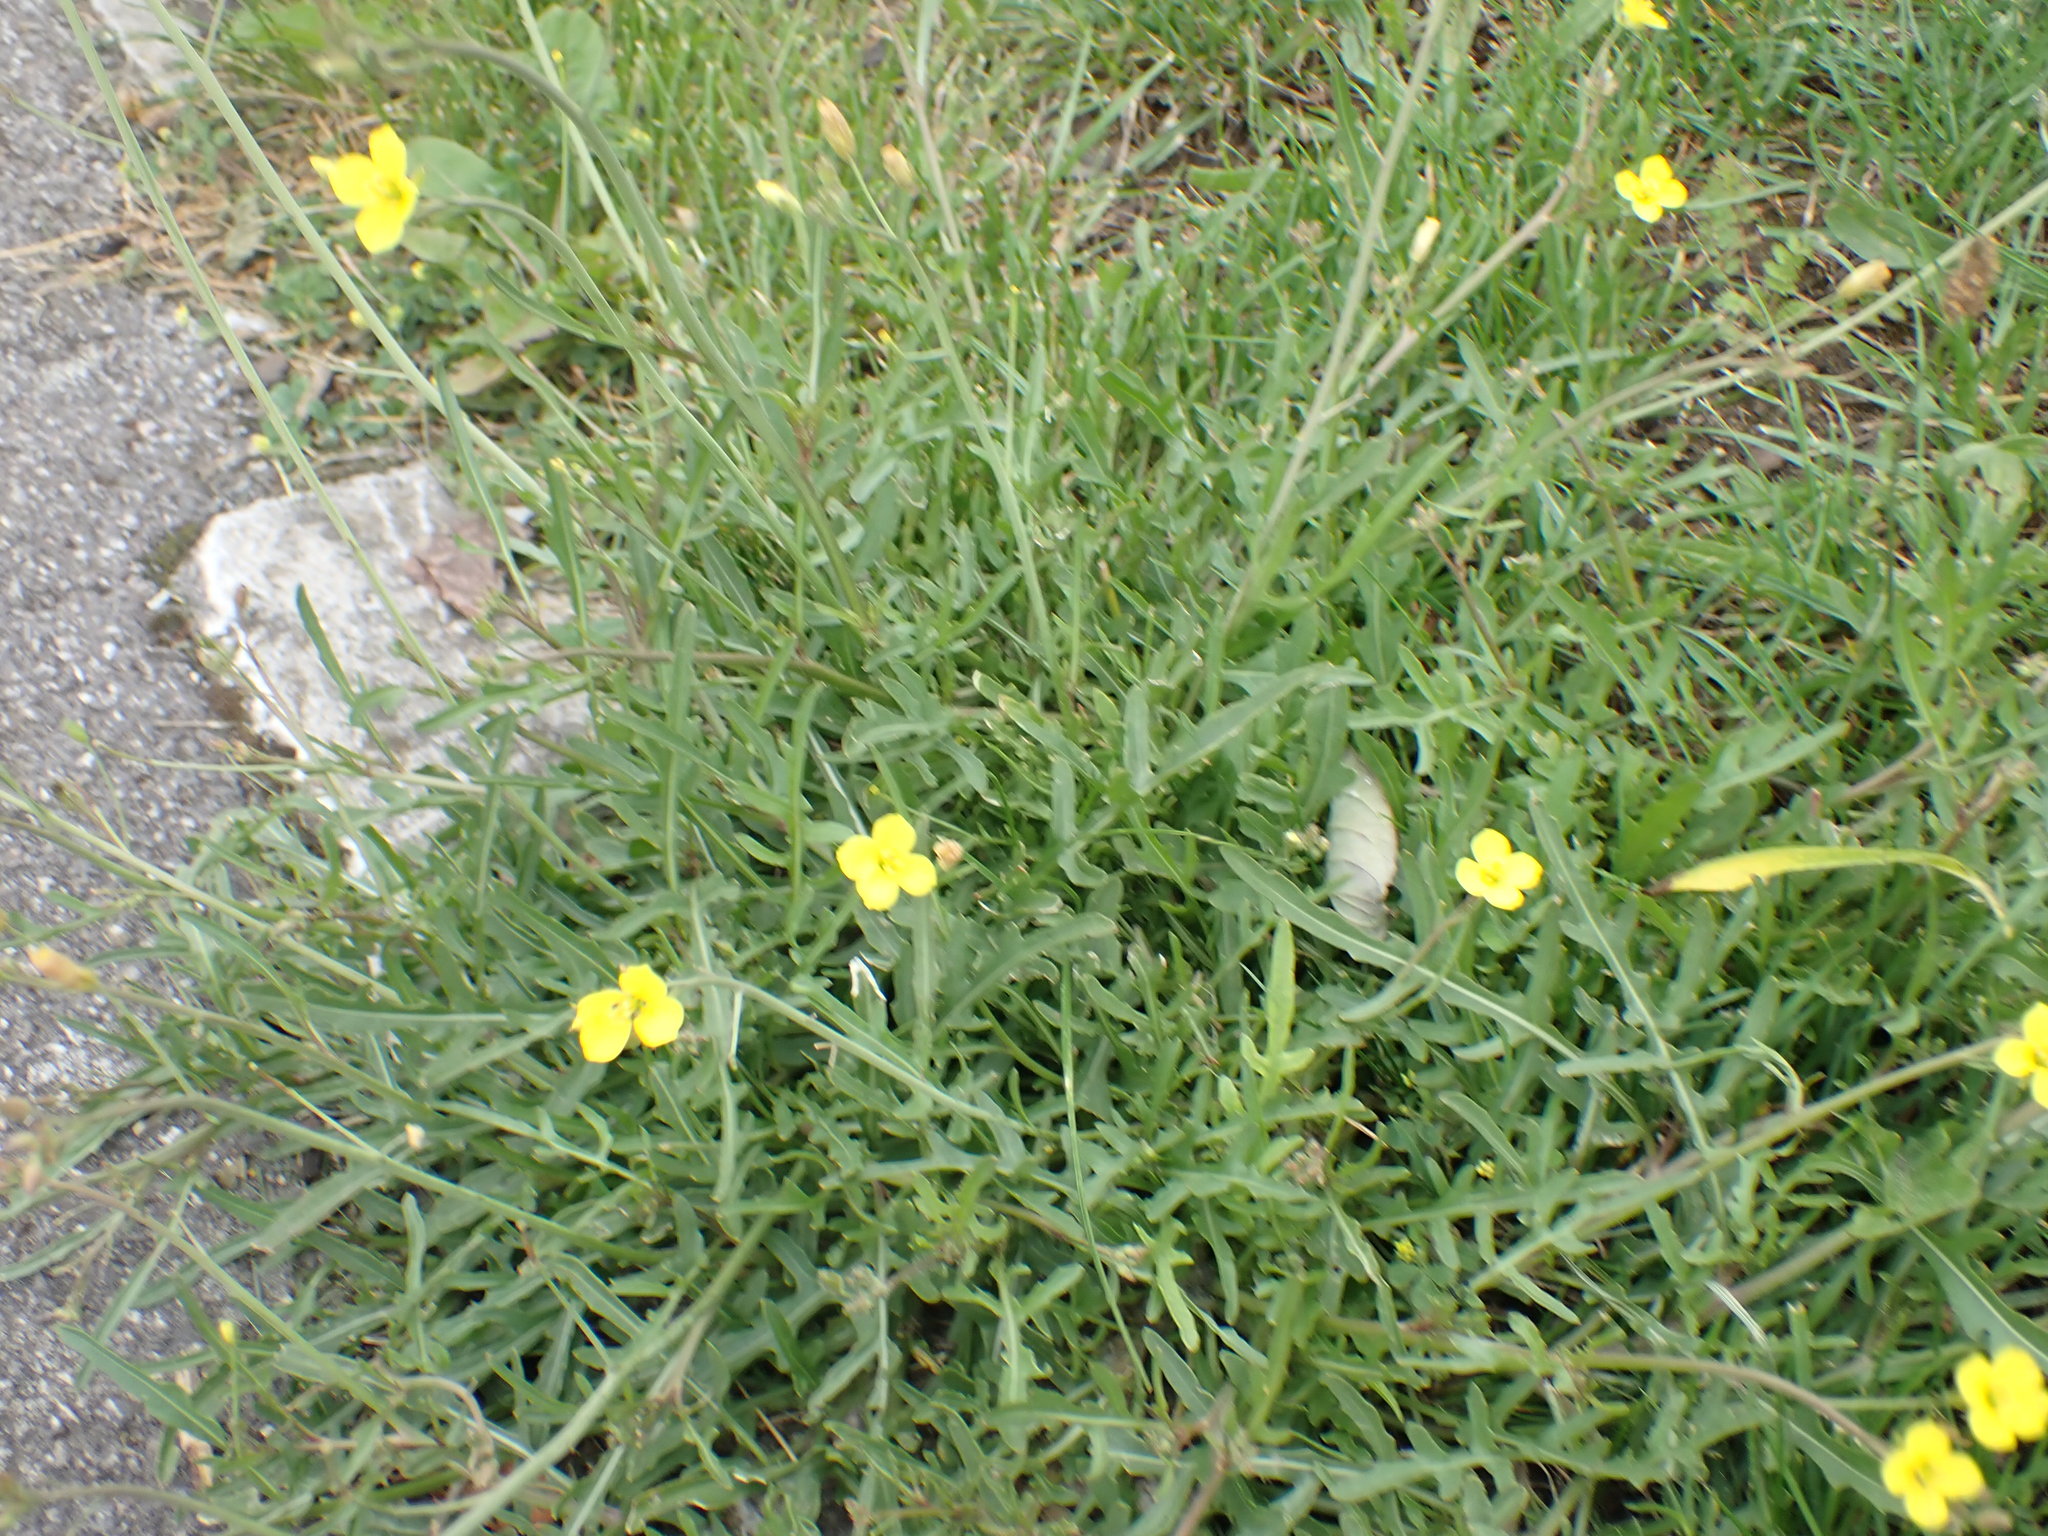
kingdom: Plantae
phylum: Tracheophyta
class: Magnoliopsida
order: Brassicales
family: Brassicaceae
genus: Diplotaxis
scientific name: Diplotaxis tenuifolia
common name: Perennial wall-rocket
